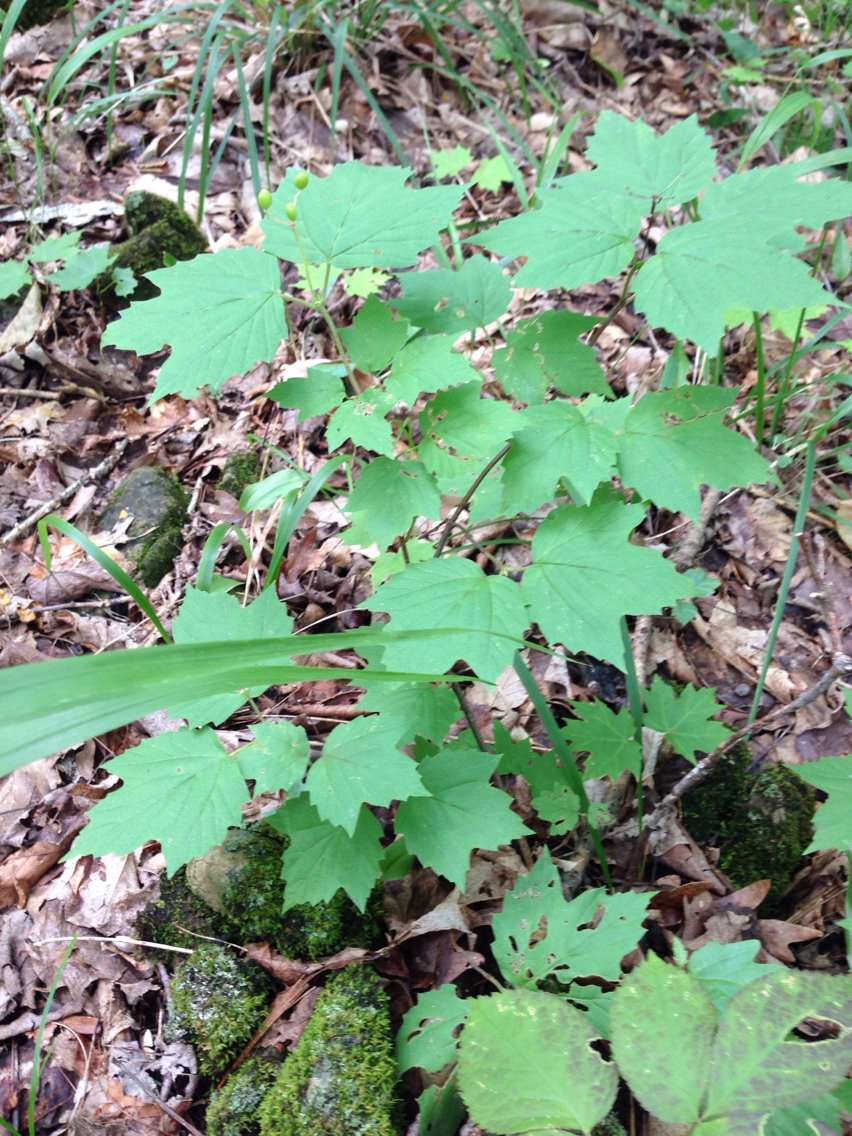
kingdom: Plantae
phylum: Tracheophyta
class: Magnoliopsida
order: Dipsacales
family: Viburnaceae
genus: Viburnum
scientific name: Viburnum acerifolium
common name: Dockmackie
